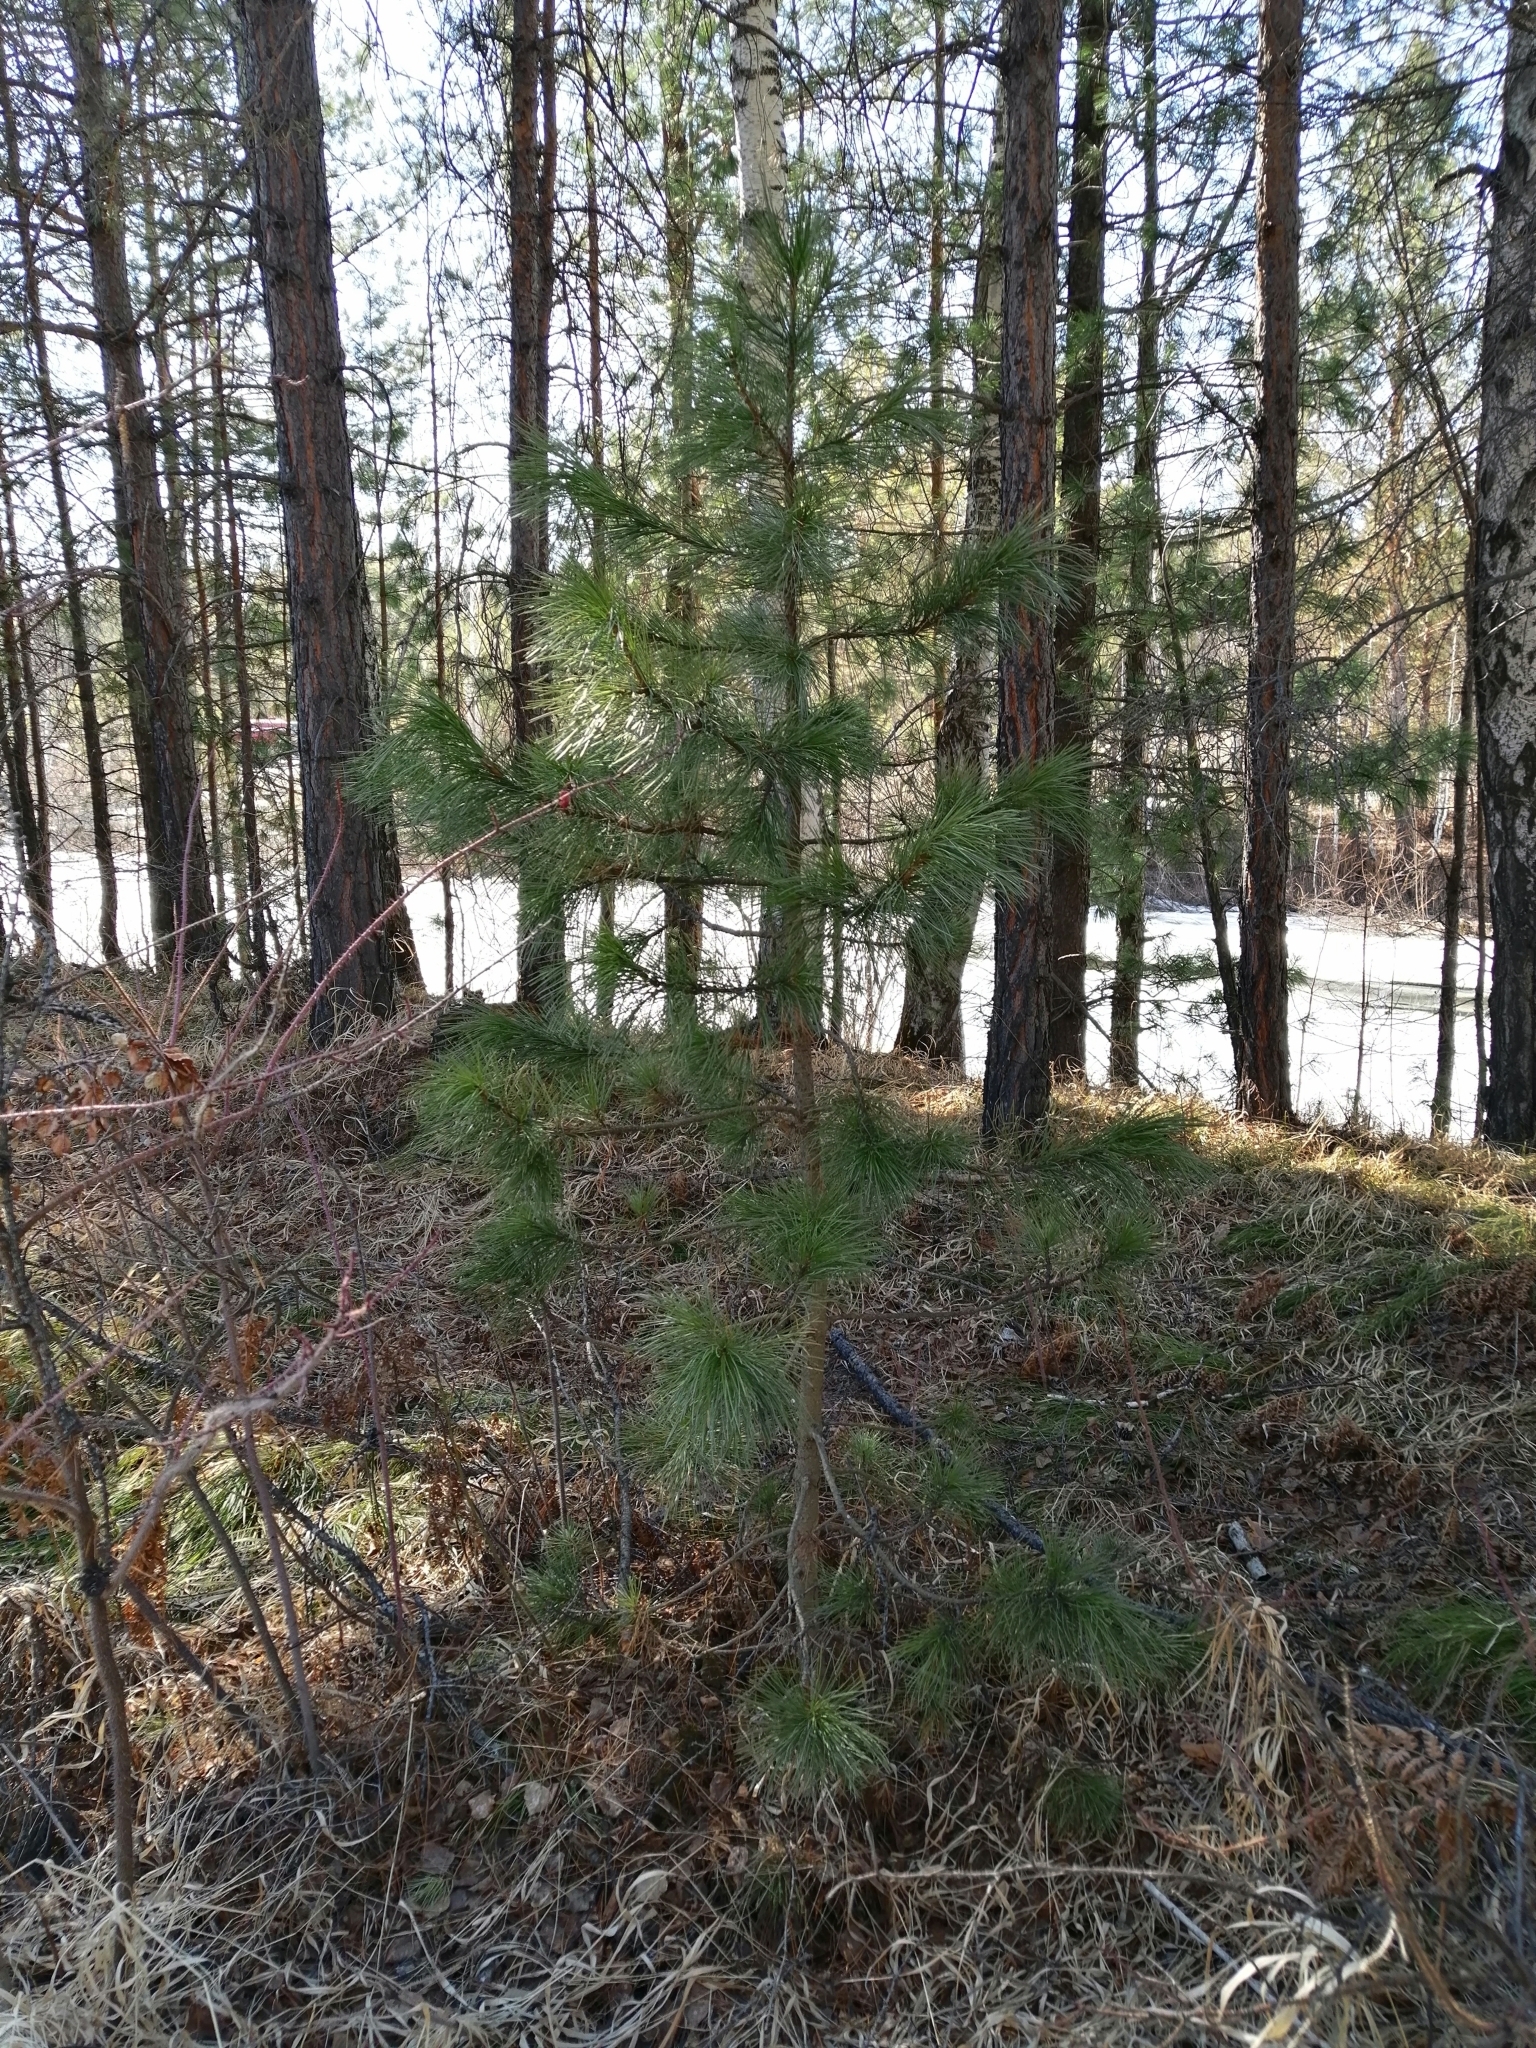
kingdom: Plantae
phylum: Tracheophyta
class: Pinopsida
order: Pinales
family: Pinaceae
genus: Pinus
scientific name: Pinus sibirica
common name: Siberian pine
